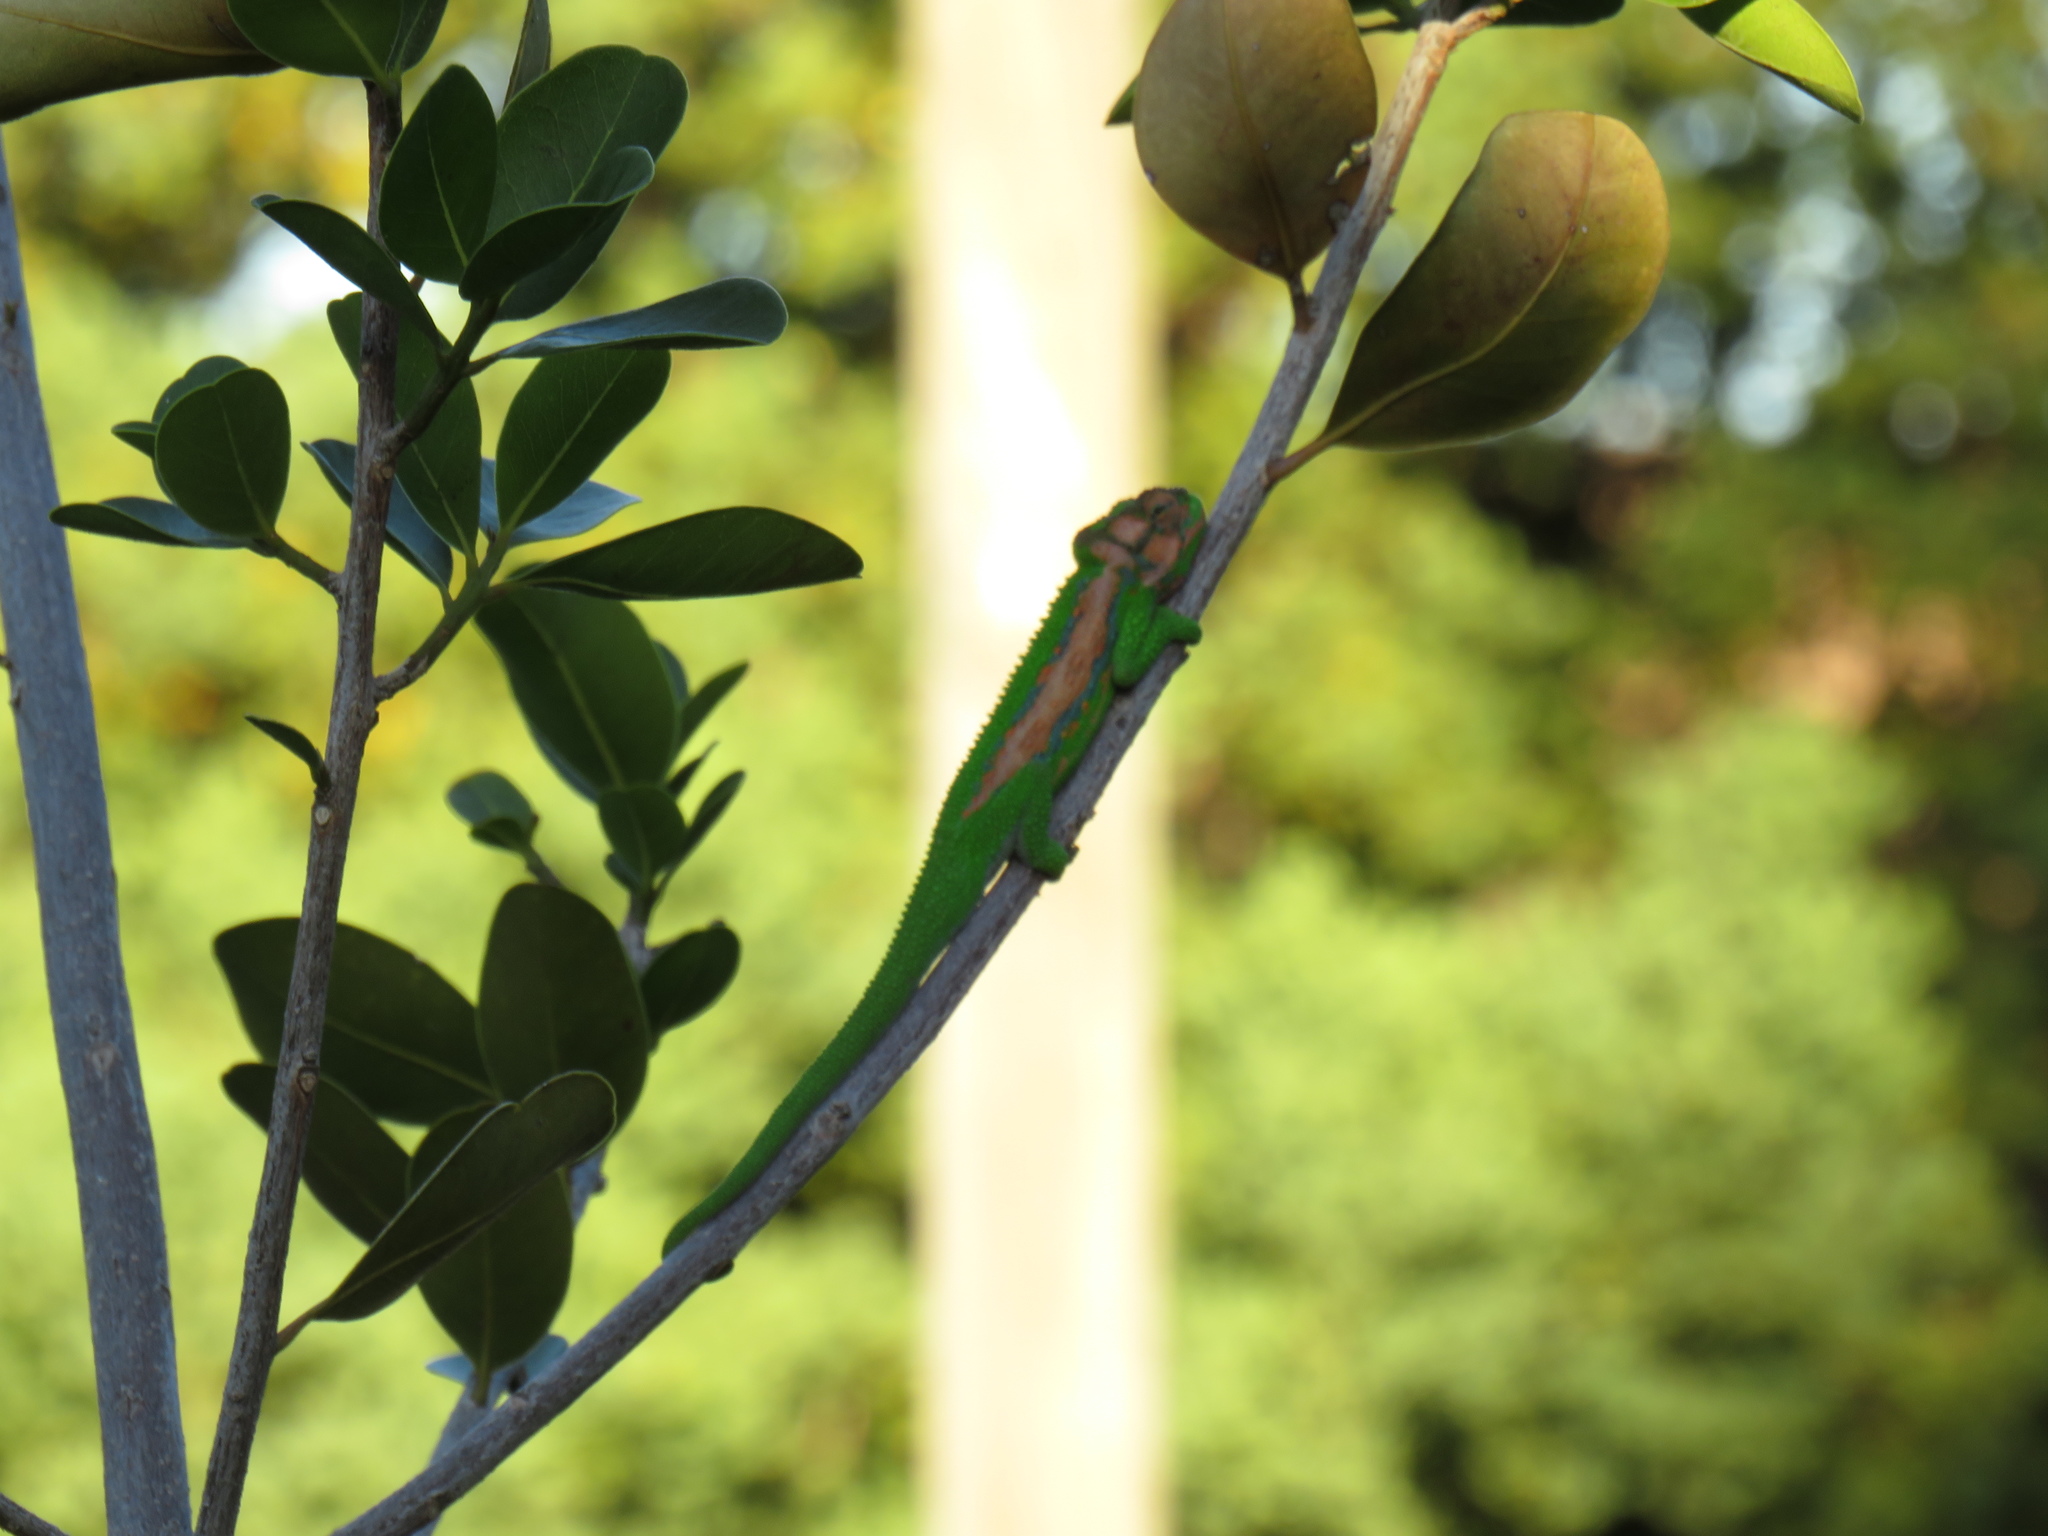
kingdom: Animalia
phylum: Chordata
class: Squamata
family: Chamaeleonidae
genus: Bradypodion
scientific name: Bradypodion pumilum
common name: Cape dwarf chameleon
